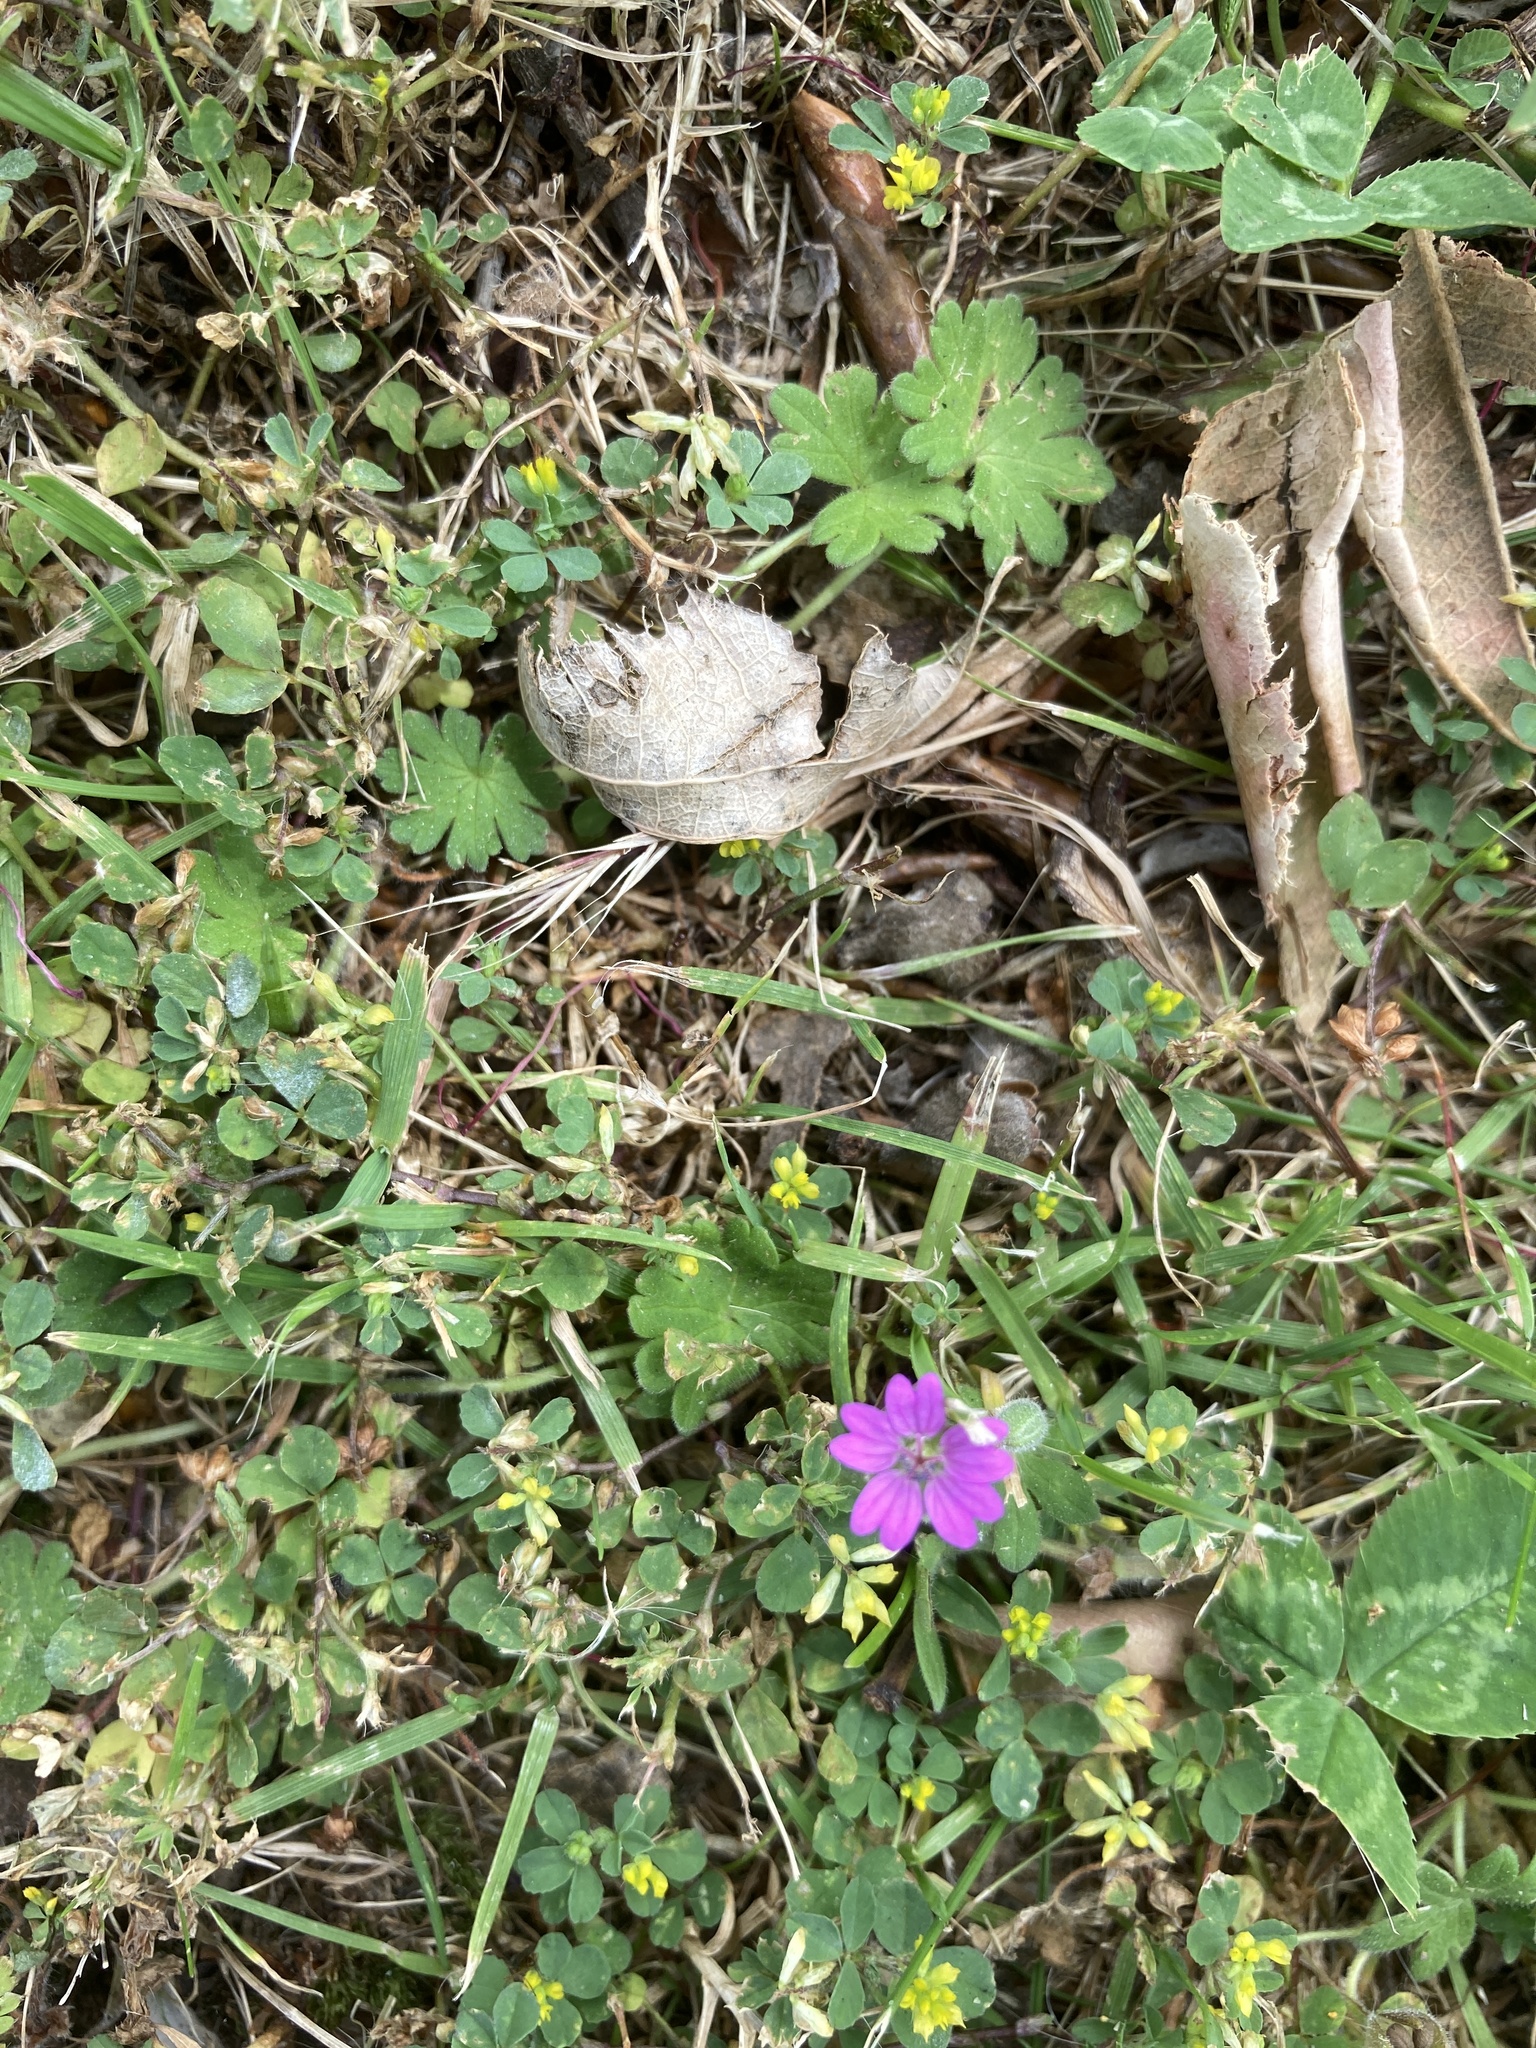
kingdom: Plantae
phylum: Tracheophyta
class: Magnoliopsida
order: Geraniales
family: Geraniaceae
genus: Geranium
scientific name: Geranium molle
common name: Dove's-foot crane's-bill
